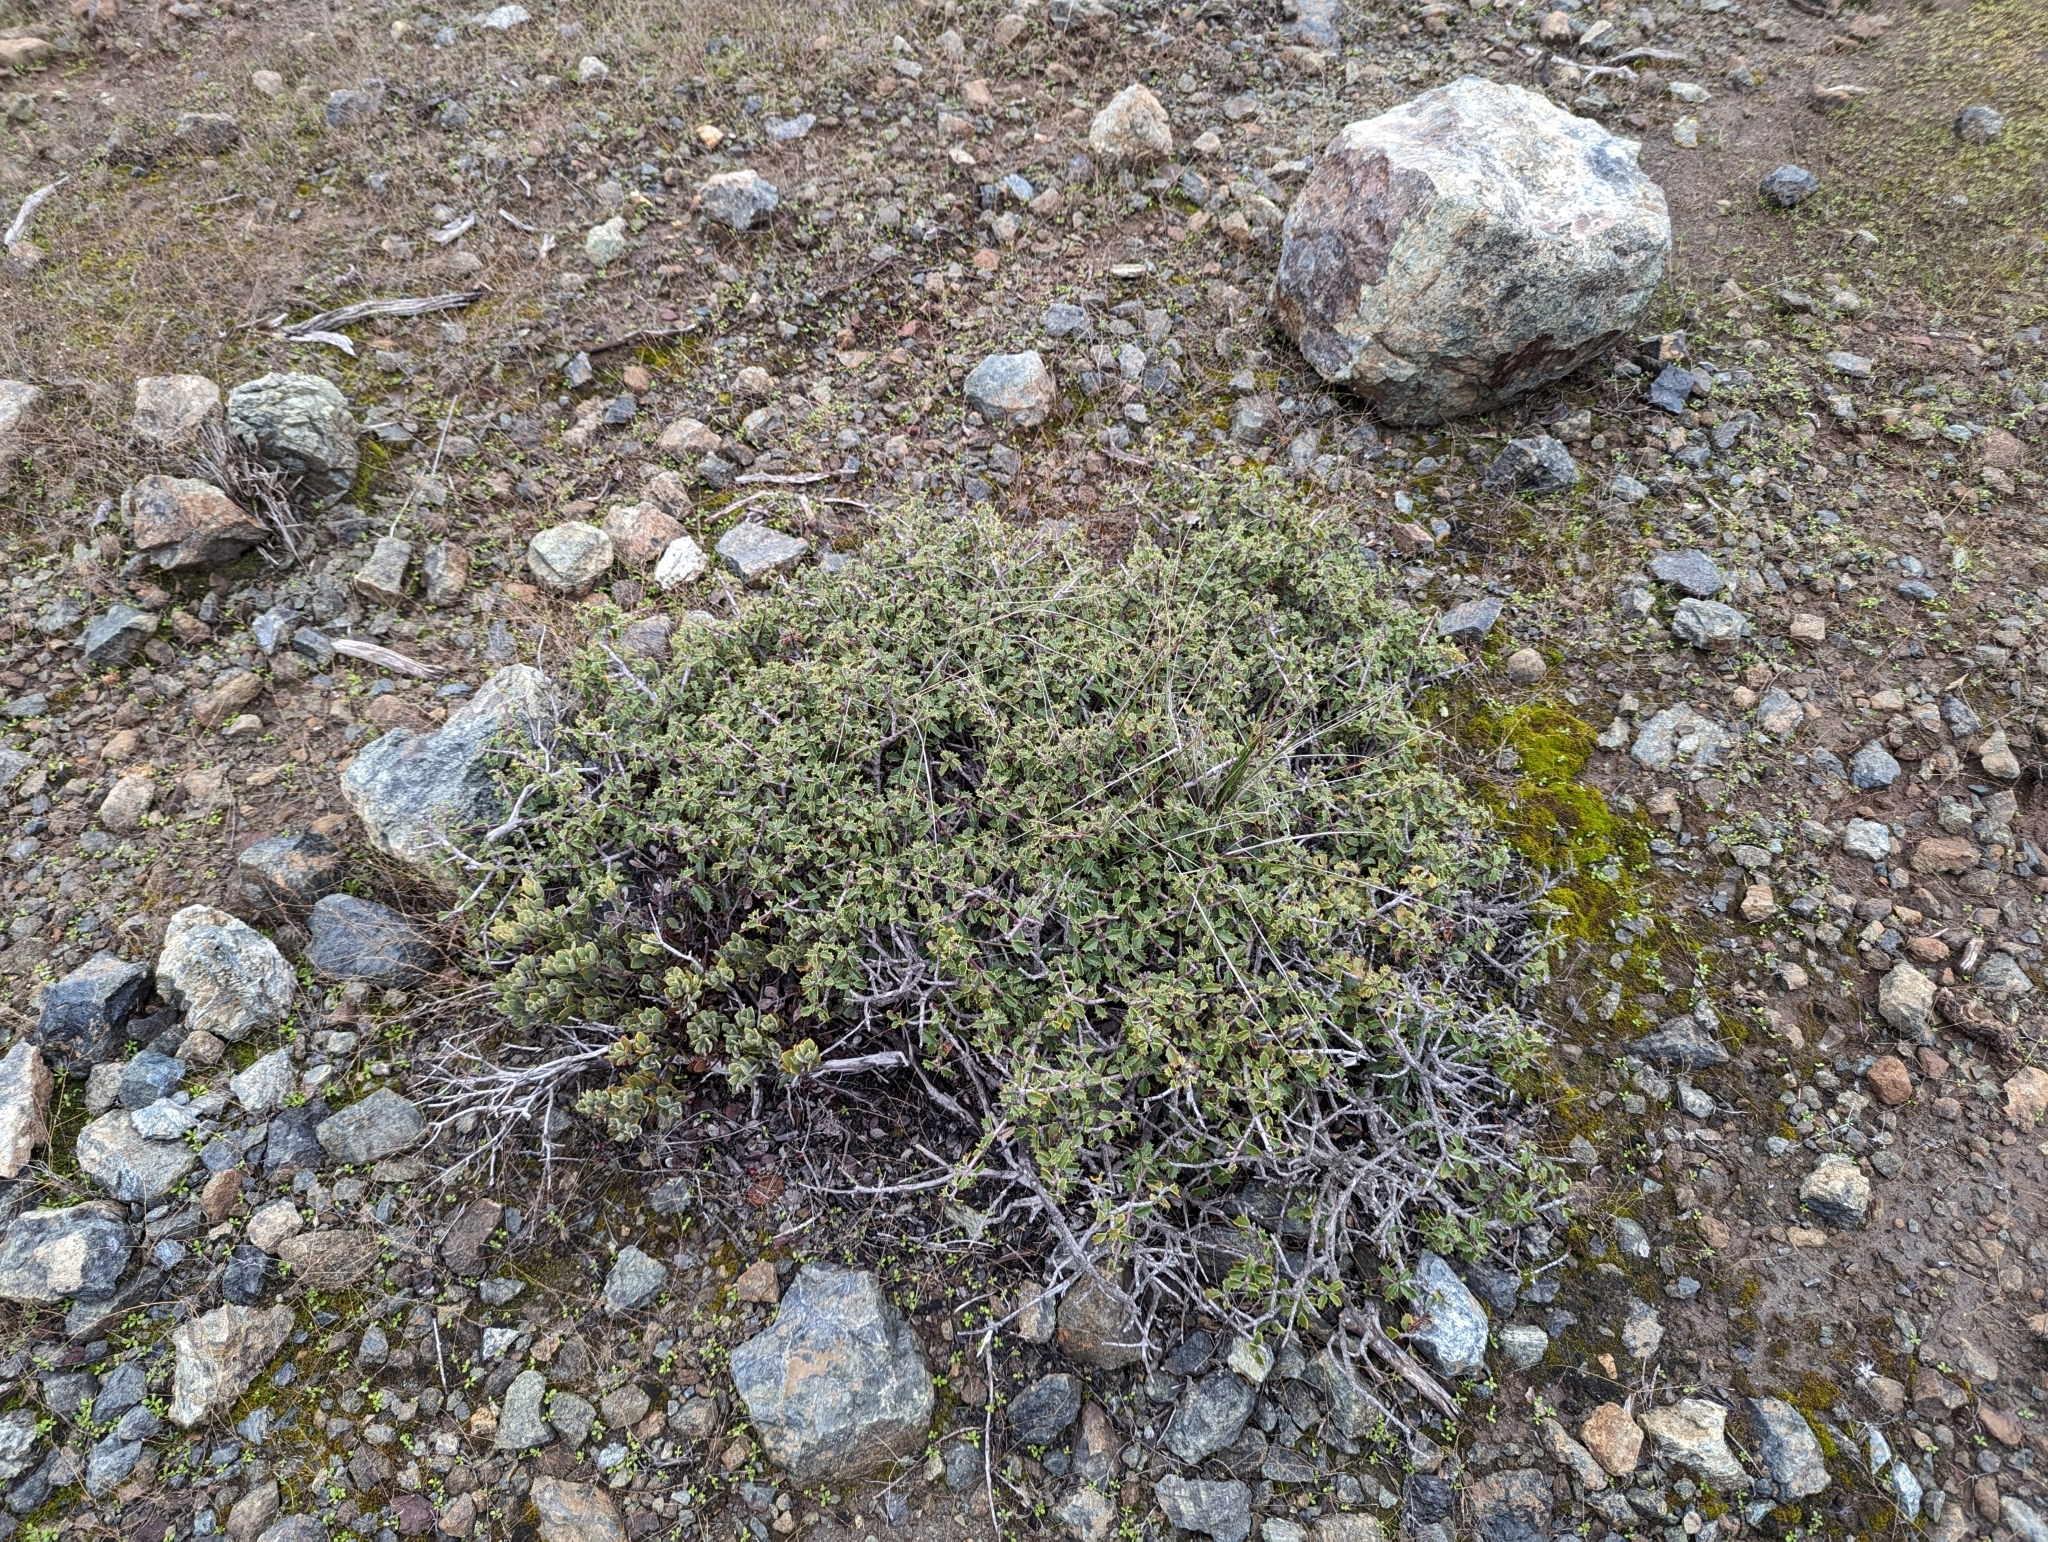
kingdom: Plantae
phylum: Tracheophyta
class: Magnoliopsida
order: Rosales
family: Rhamnaceae
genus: Ceanothus
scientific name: Ceanothus jepsonii
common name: Muskbrush
